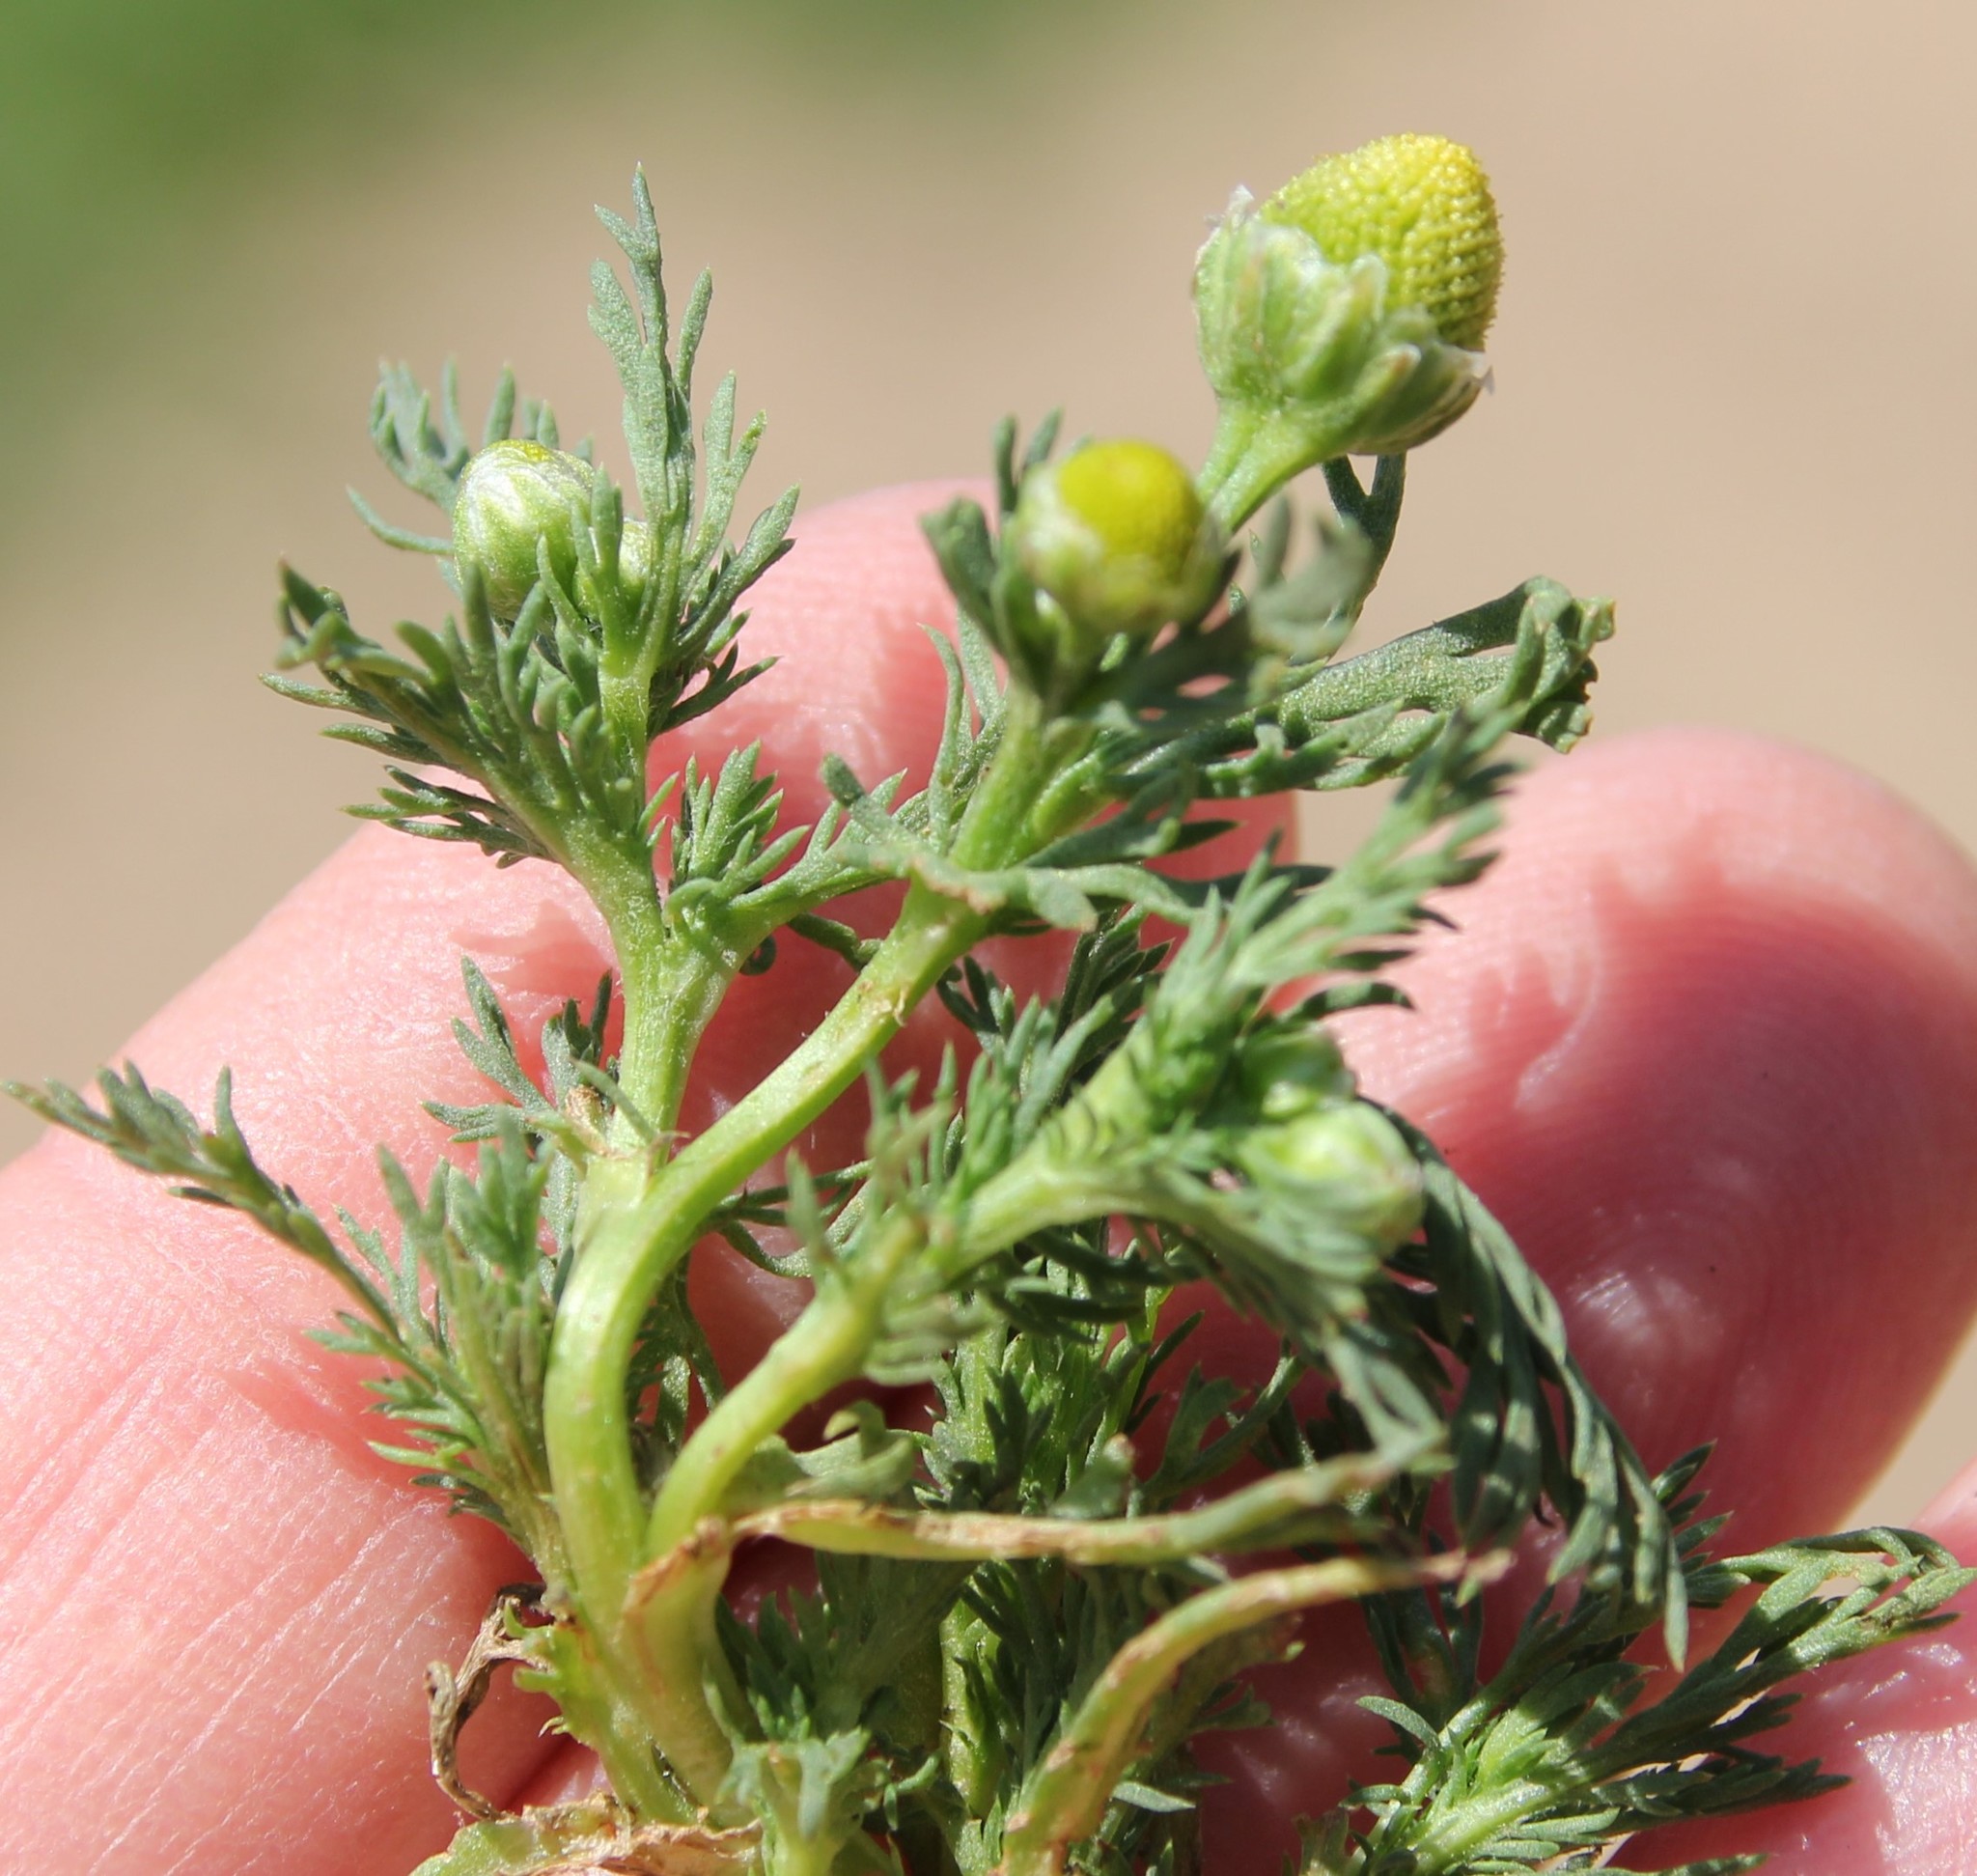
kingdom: Plantae
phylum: Tracheophyta
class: Magnoliopsida
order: Asterales
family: Asteraceae
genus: Matricaria
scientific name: Matricaria discoidea
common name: Disc mayweed
